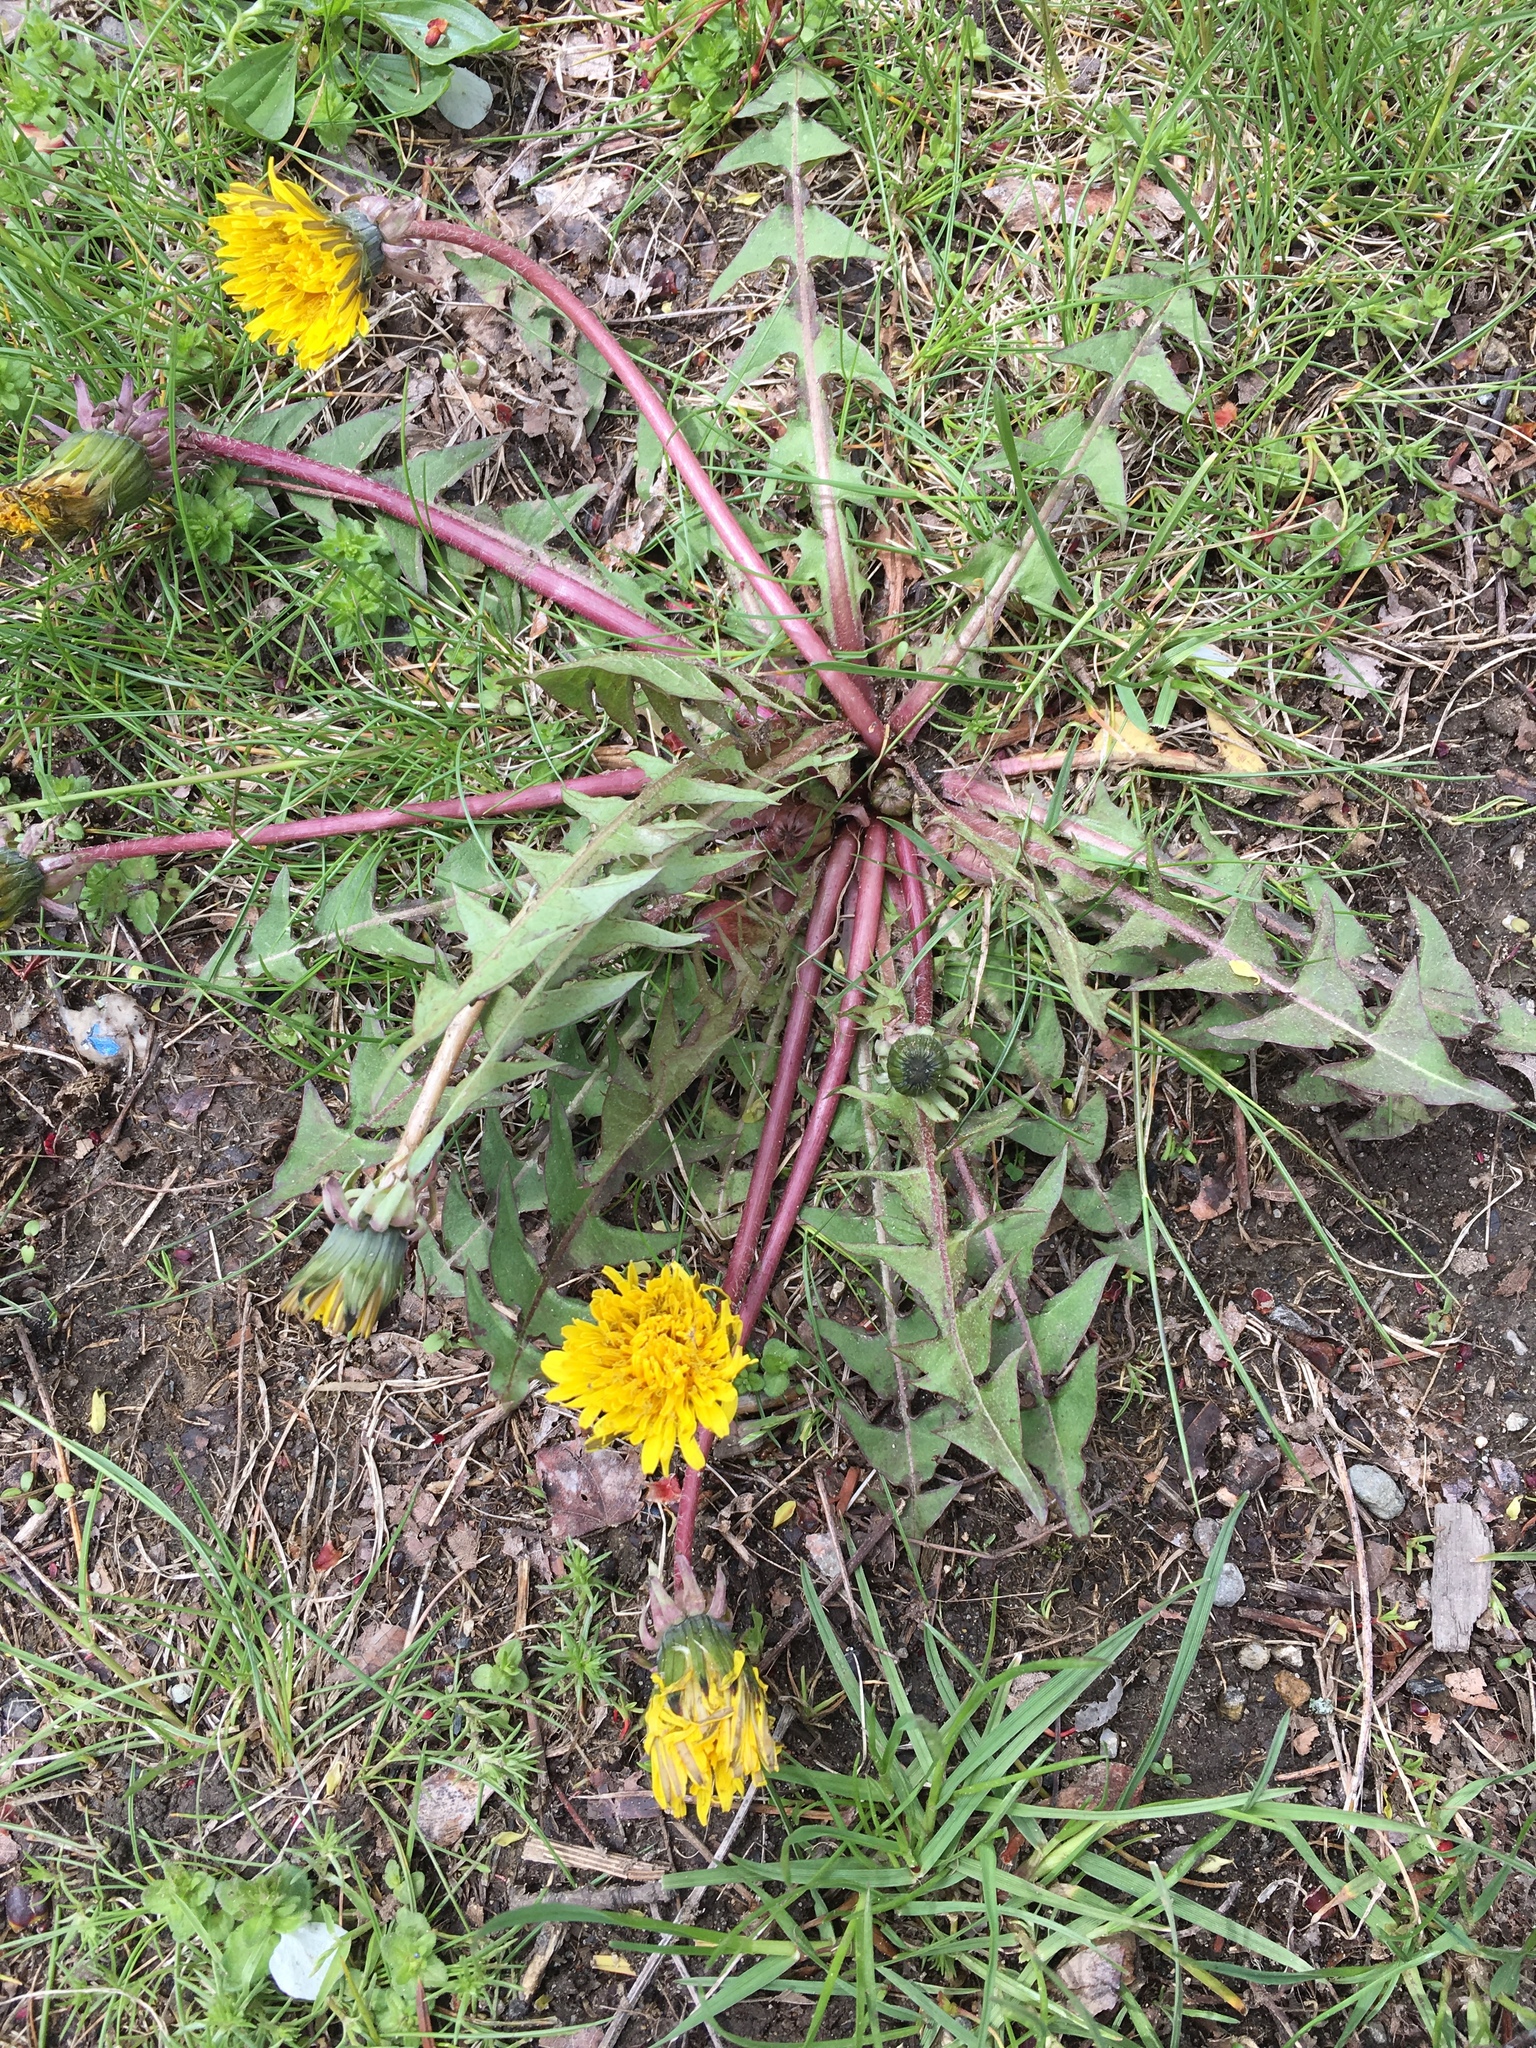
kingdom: Plantae
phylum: Tracheophyta
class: Magnoliopsida
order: Asterales
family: Asteraceae
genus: Taraxacum
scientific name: Taraxacum officinale
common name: Common dandelion
